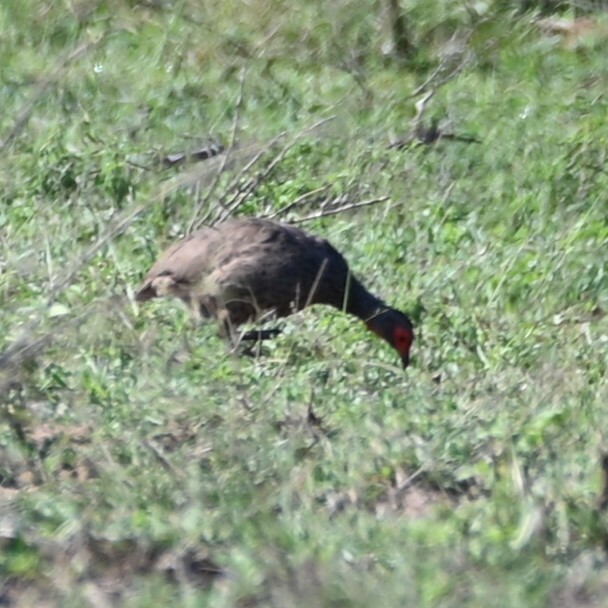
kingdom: Animalia
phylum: Chordata
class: Aves
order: Galliformes
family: Phasianidae
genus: Pternistis
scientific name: Pternistis swainsonii
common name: Swainson's spurfowl
